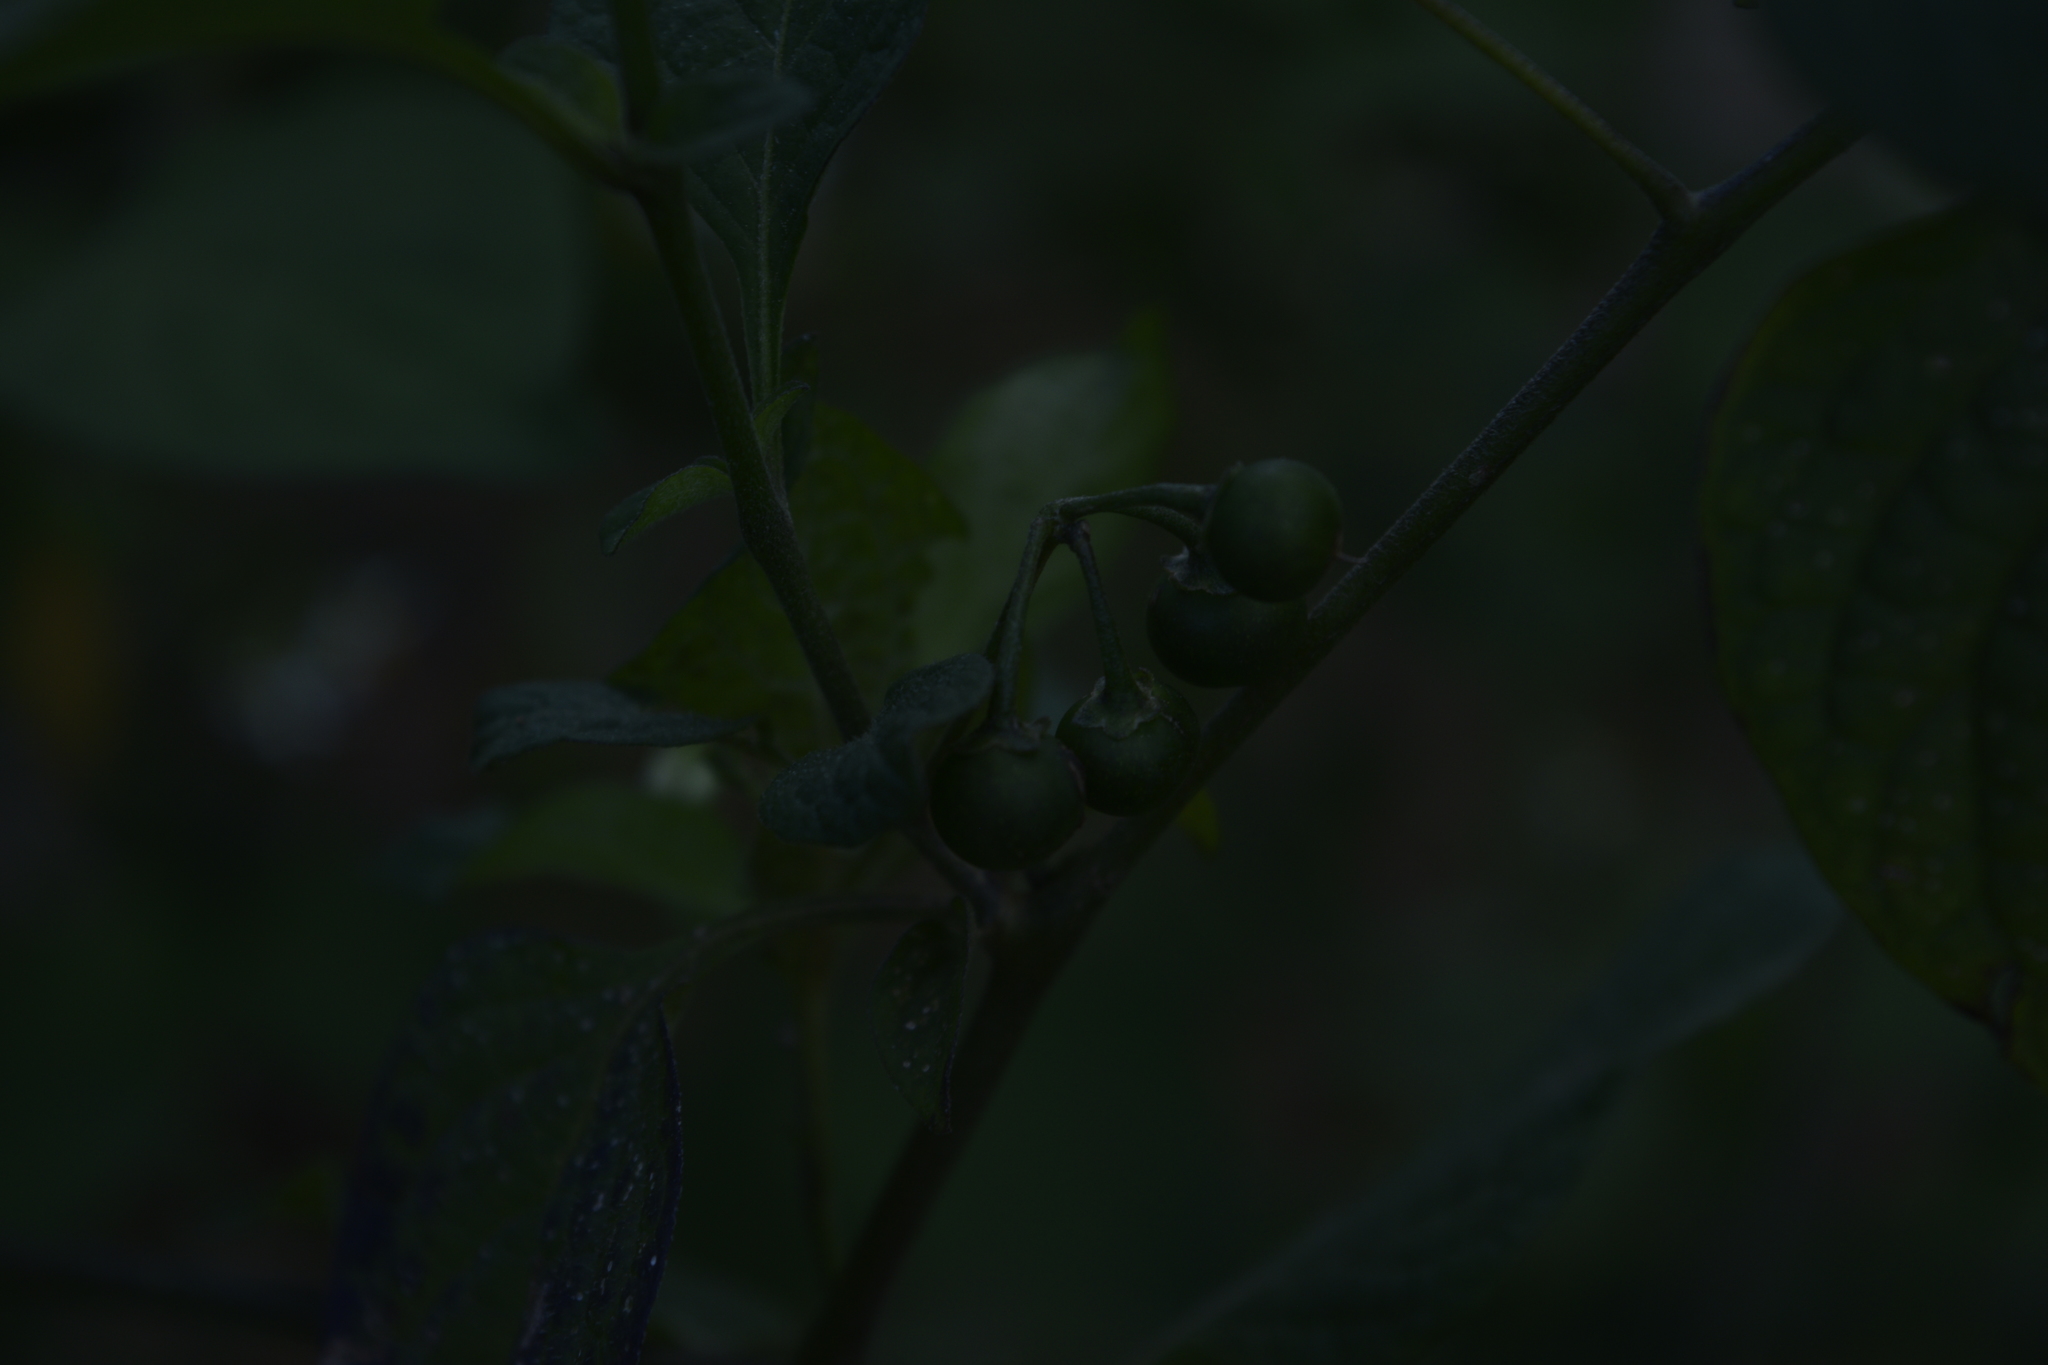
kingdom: Plantae
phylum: Tracheophyta
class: Magnoliopsida
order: Solanales
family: Solanaceae
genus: Solanum
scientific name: Solanum douglasii
